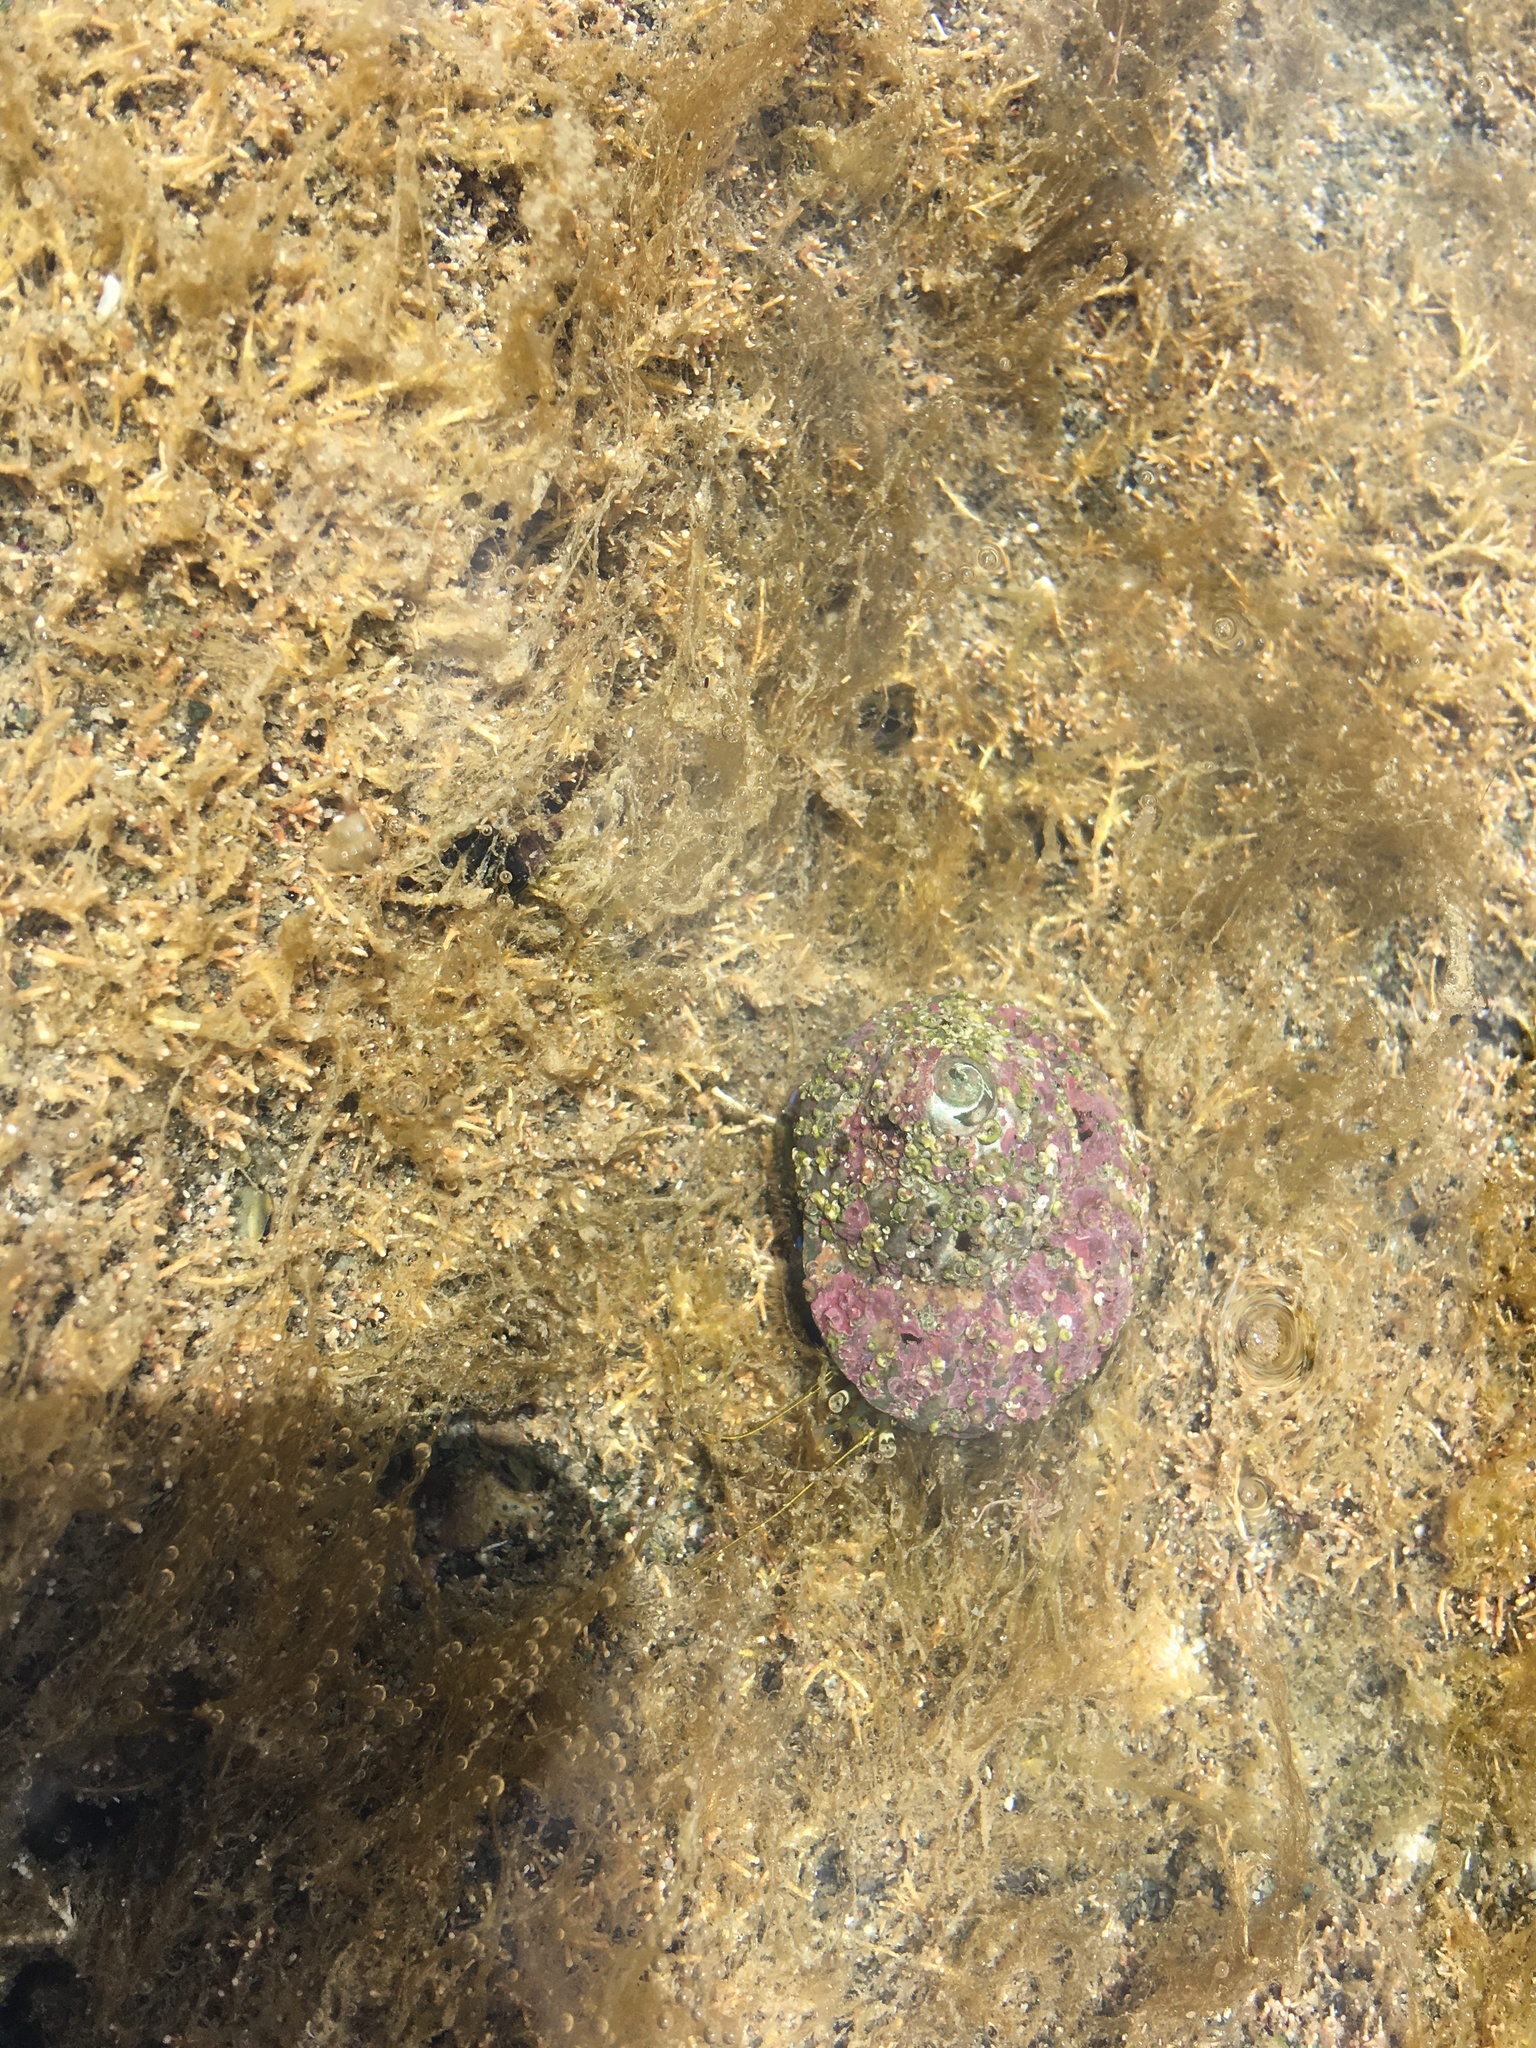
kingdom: Animalia
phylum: Arthropoda
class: Malacostraca
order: Decapoda
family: Paguridae
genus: Pagurus
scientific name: Pagurus novizealandiae
